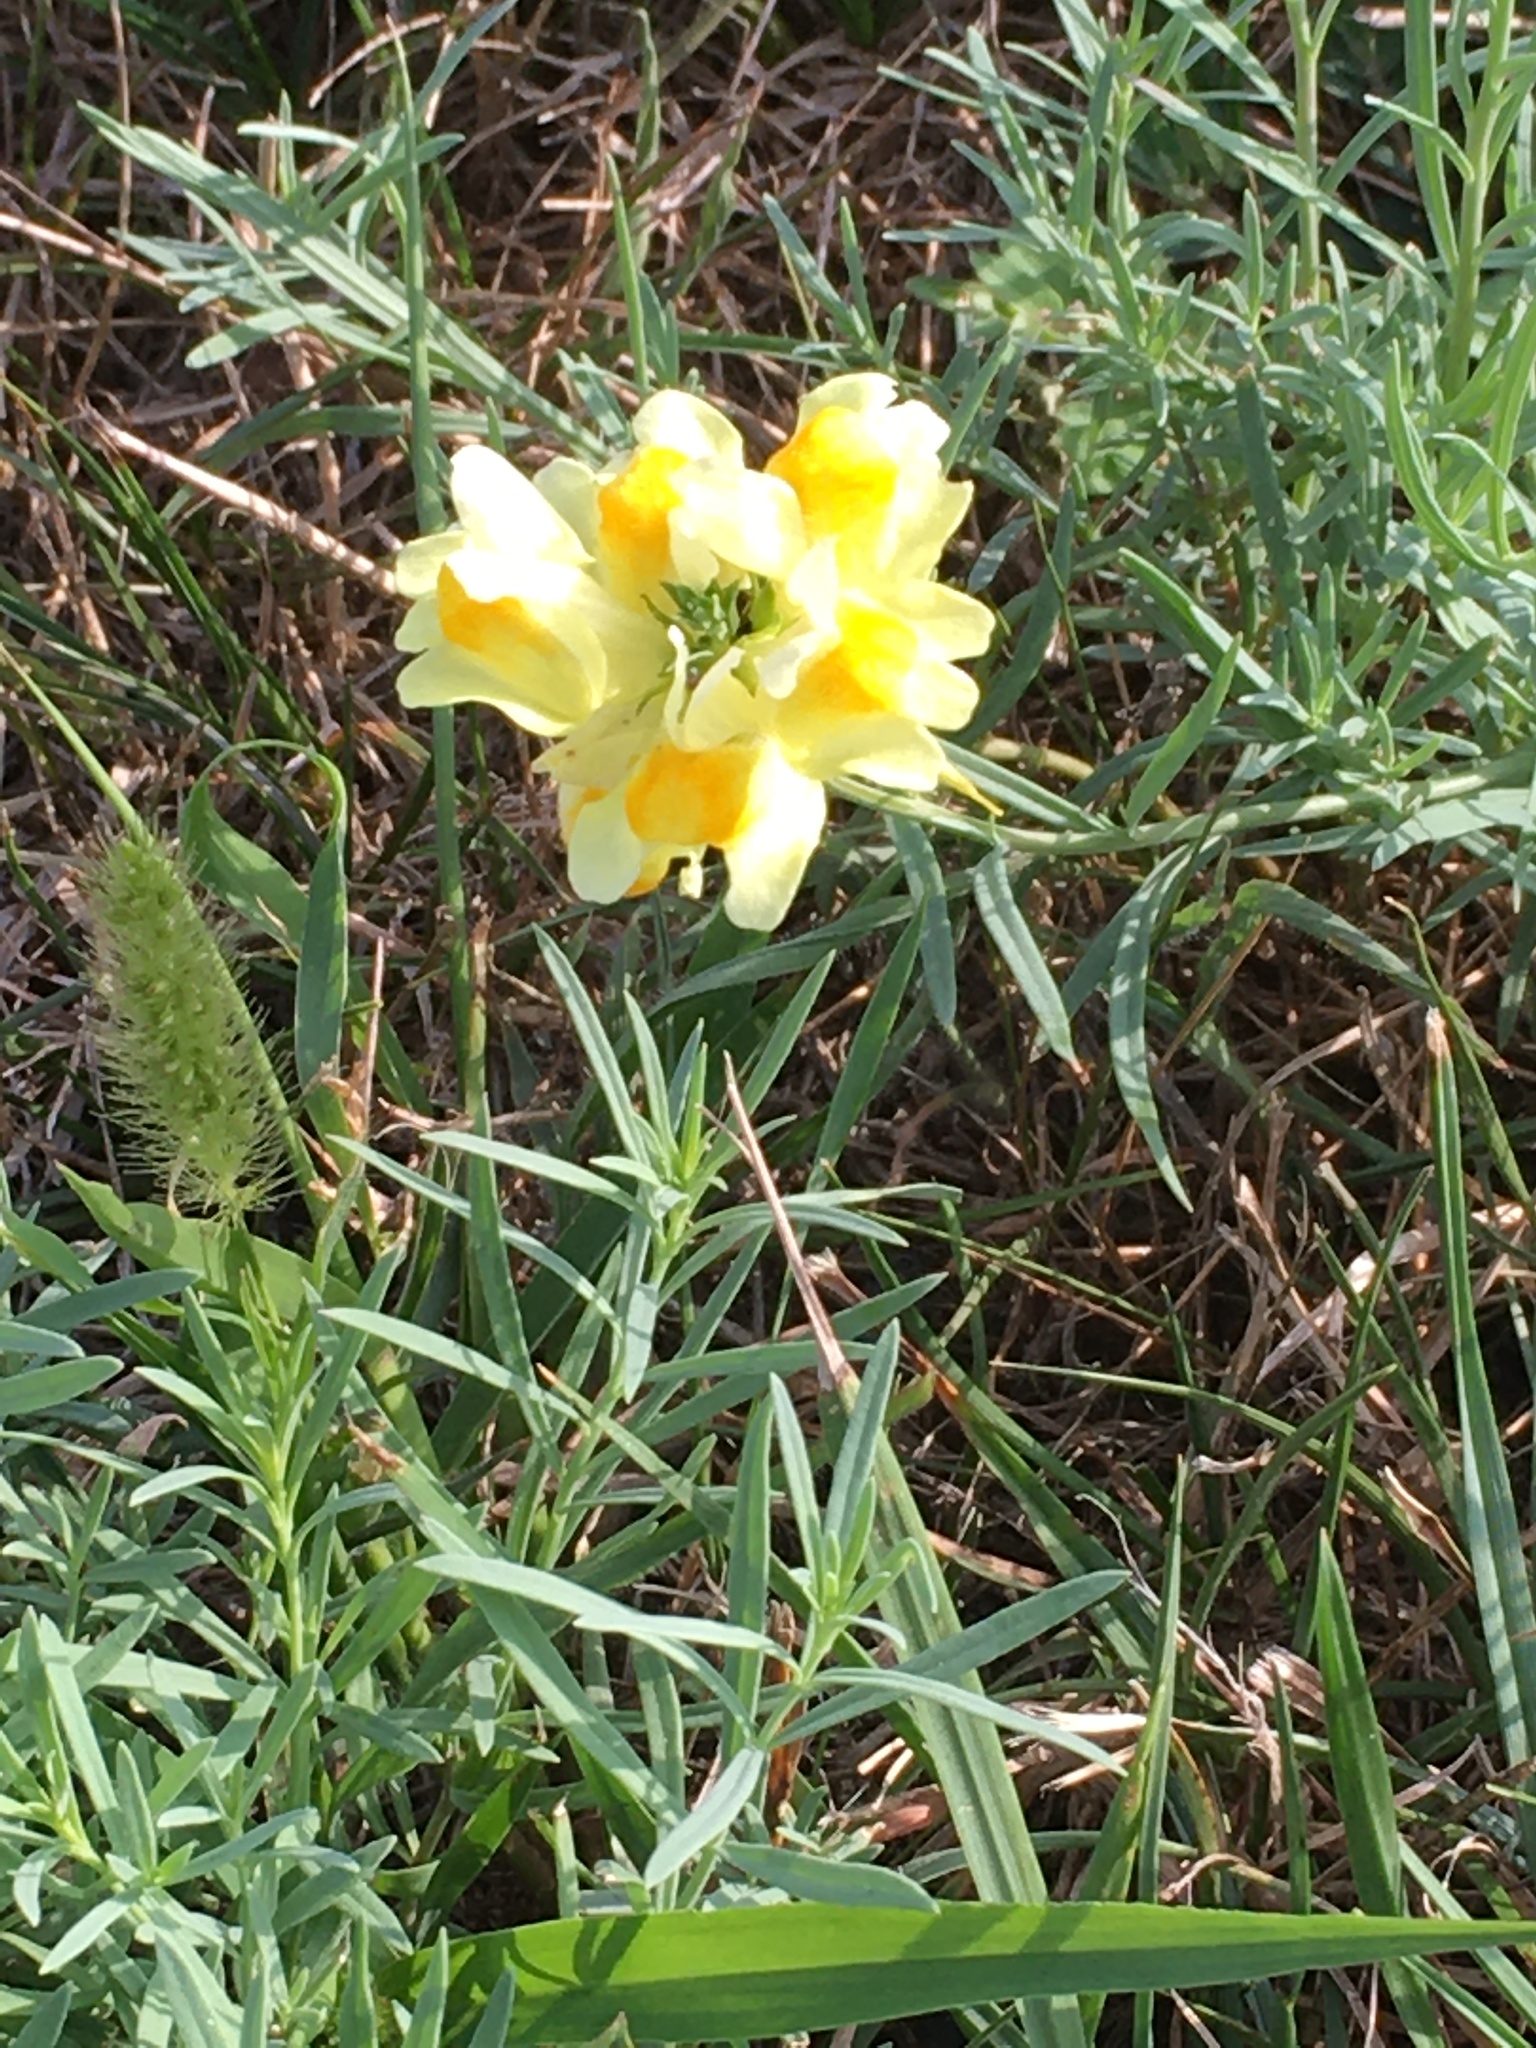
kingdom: Plantae
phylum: Tracheophyta
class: Magnoliopsida
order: Lamiales
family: Plantaginaceae
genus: Linaria
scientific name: Linaria vulgaris
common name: Butter and eggs
